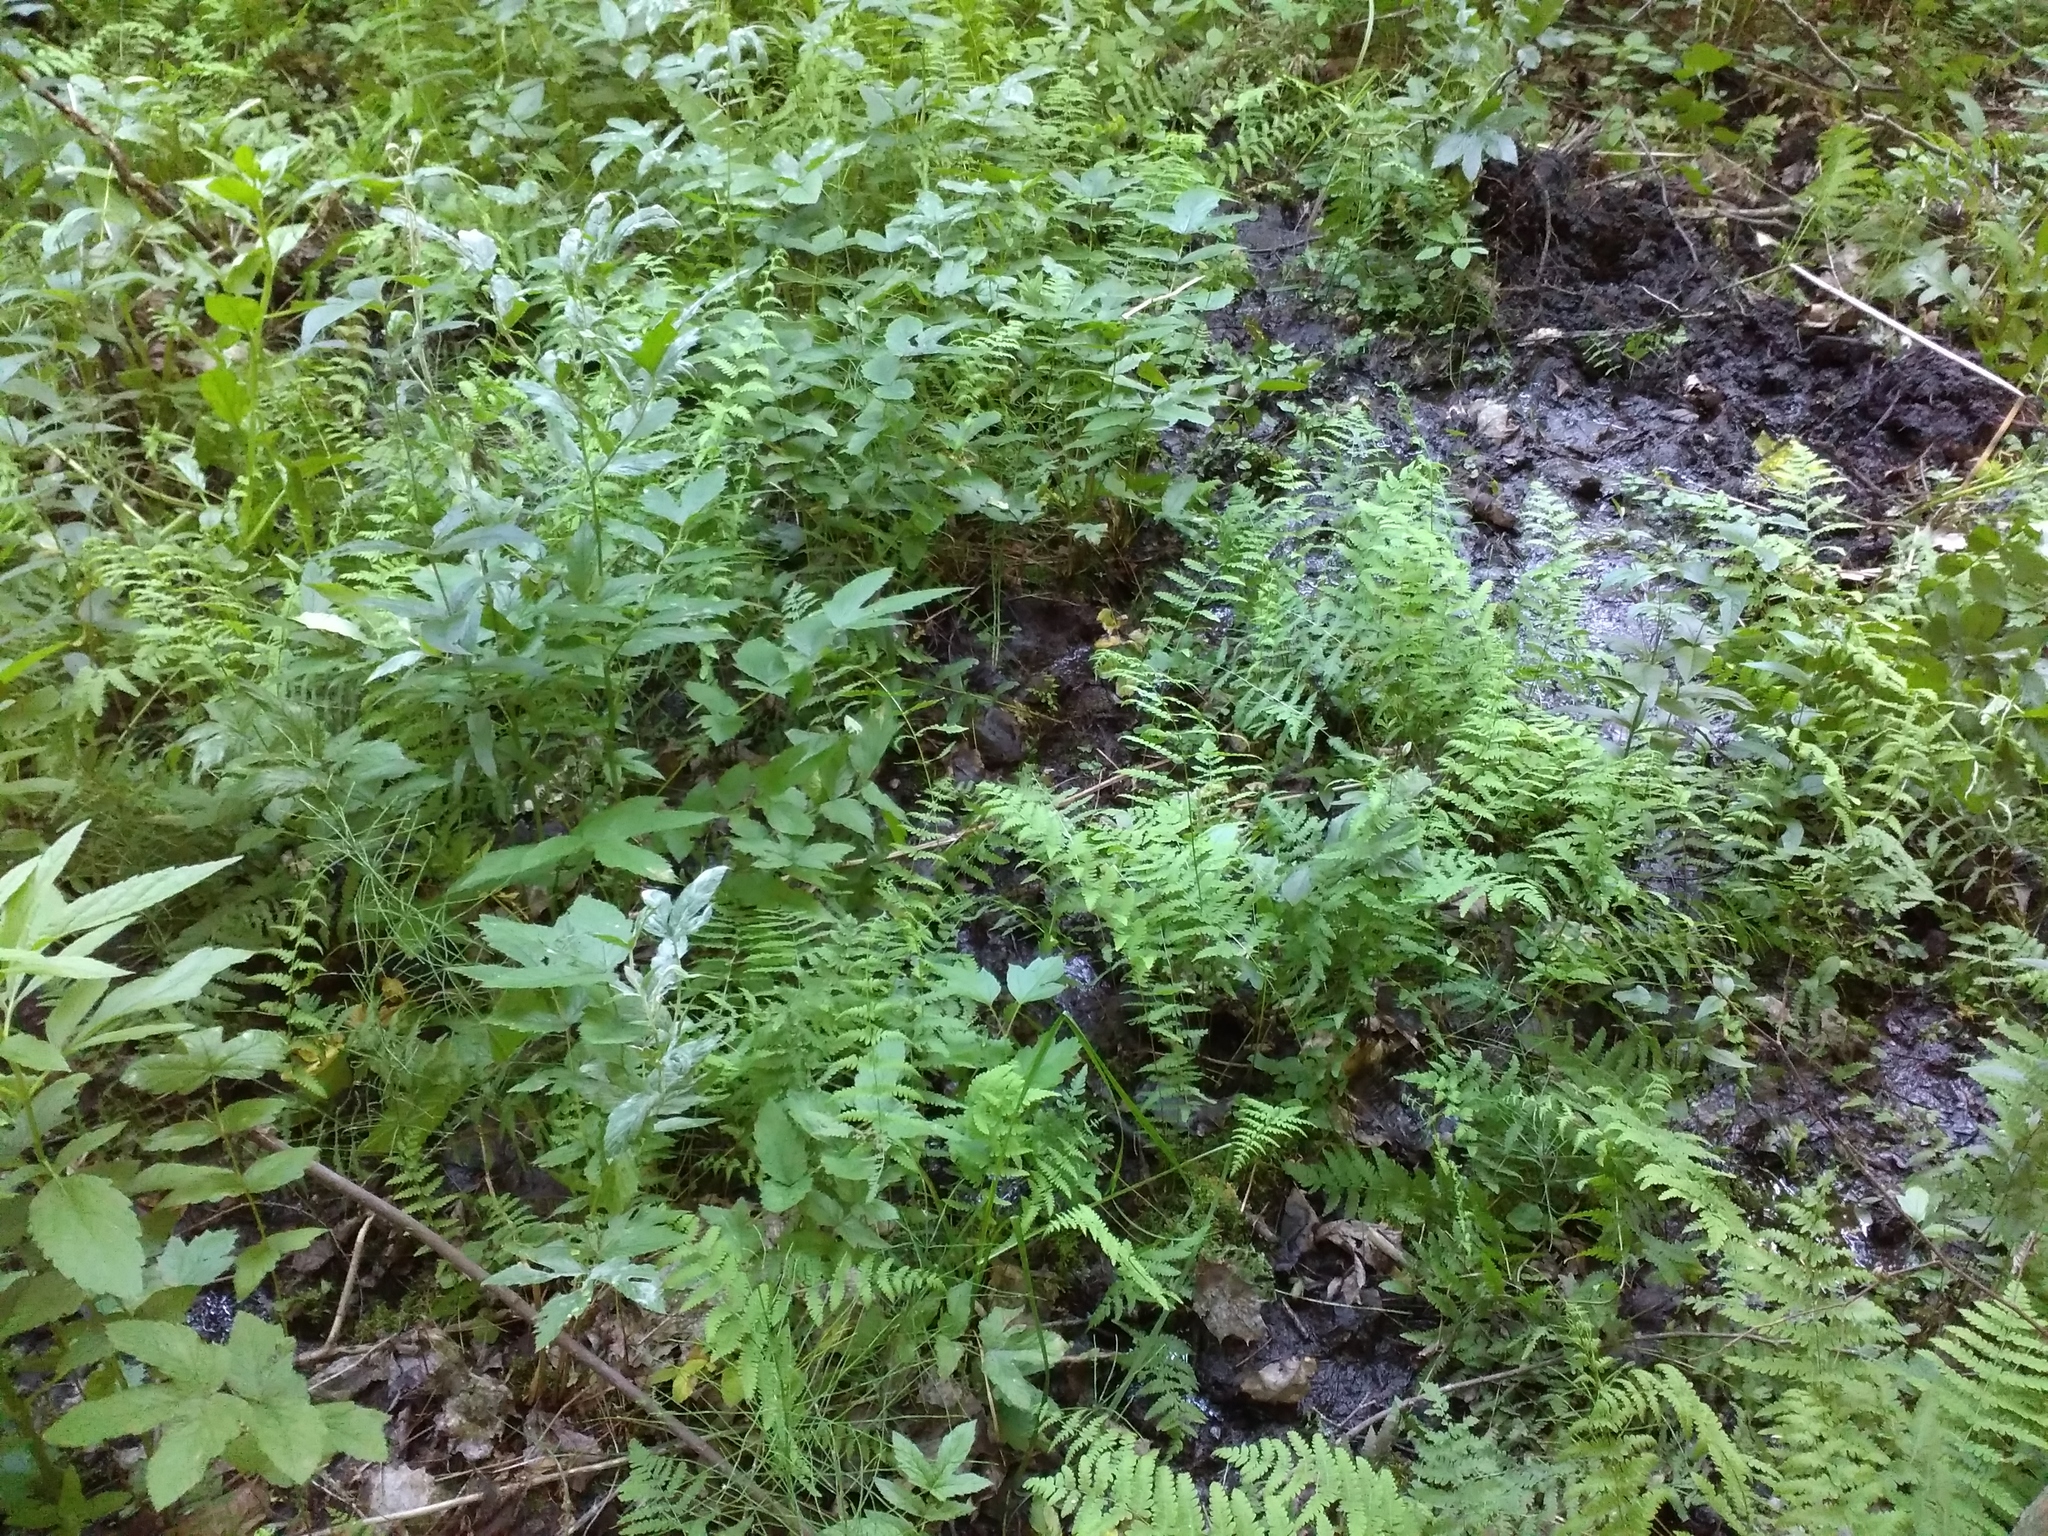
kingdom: Plantae
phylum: Tracheophyta
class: Polypodiopsida
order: Polypodiales
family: Thelypteridaceae
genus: Thelypteris
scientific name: Thelypteris palustris
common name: Marsh fern
